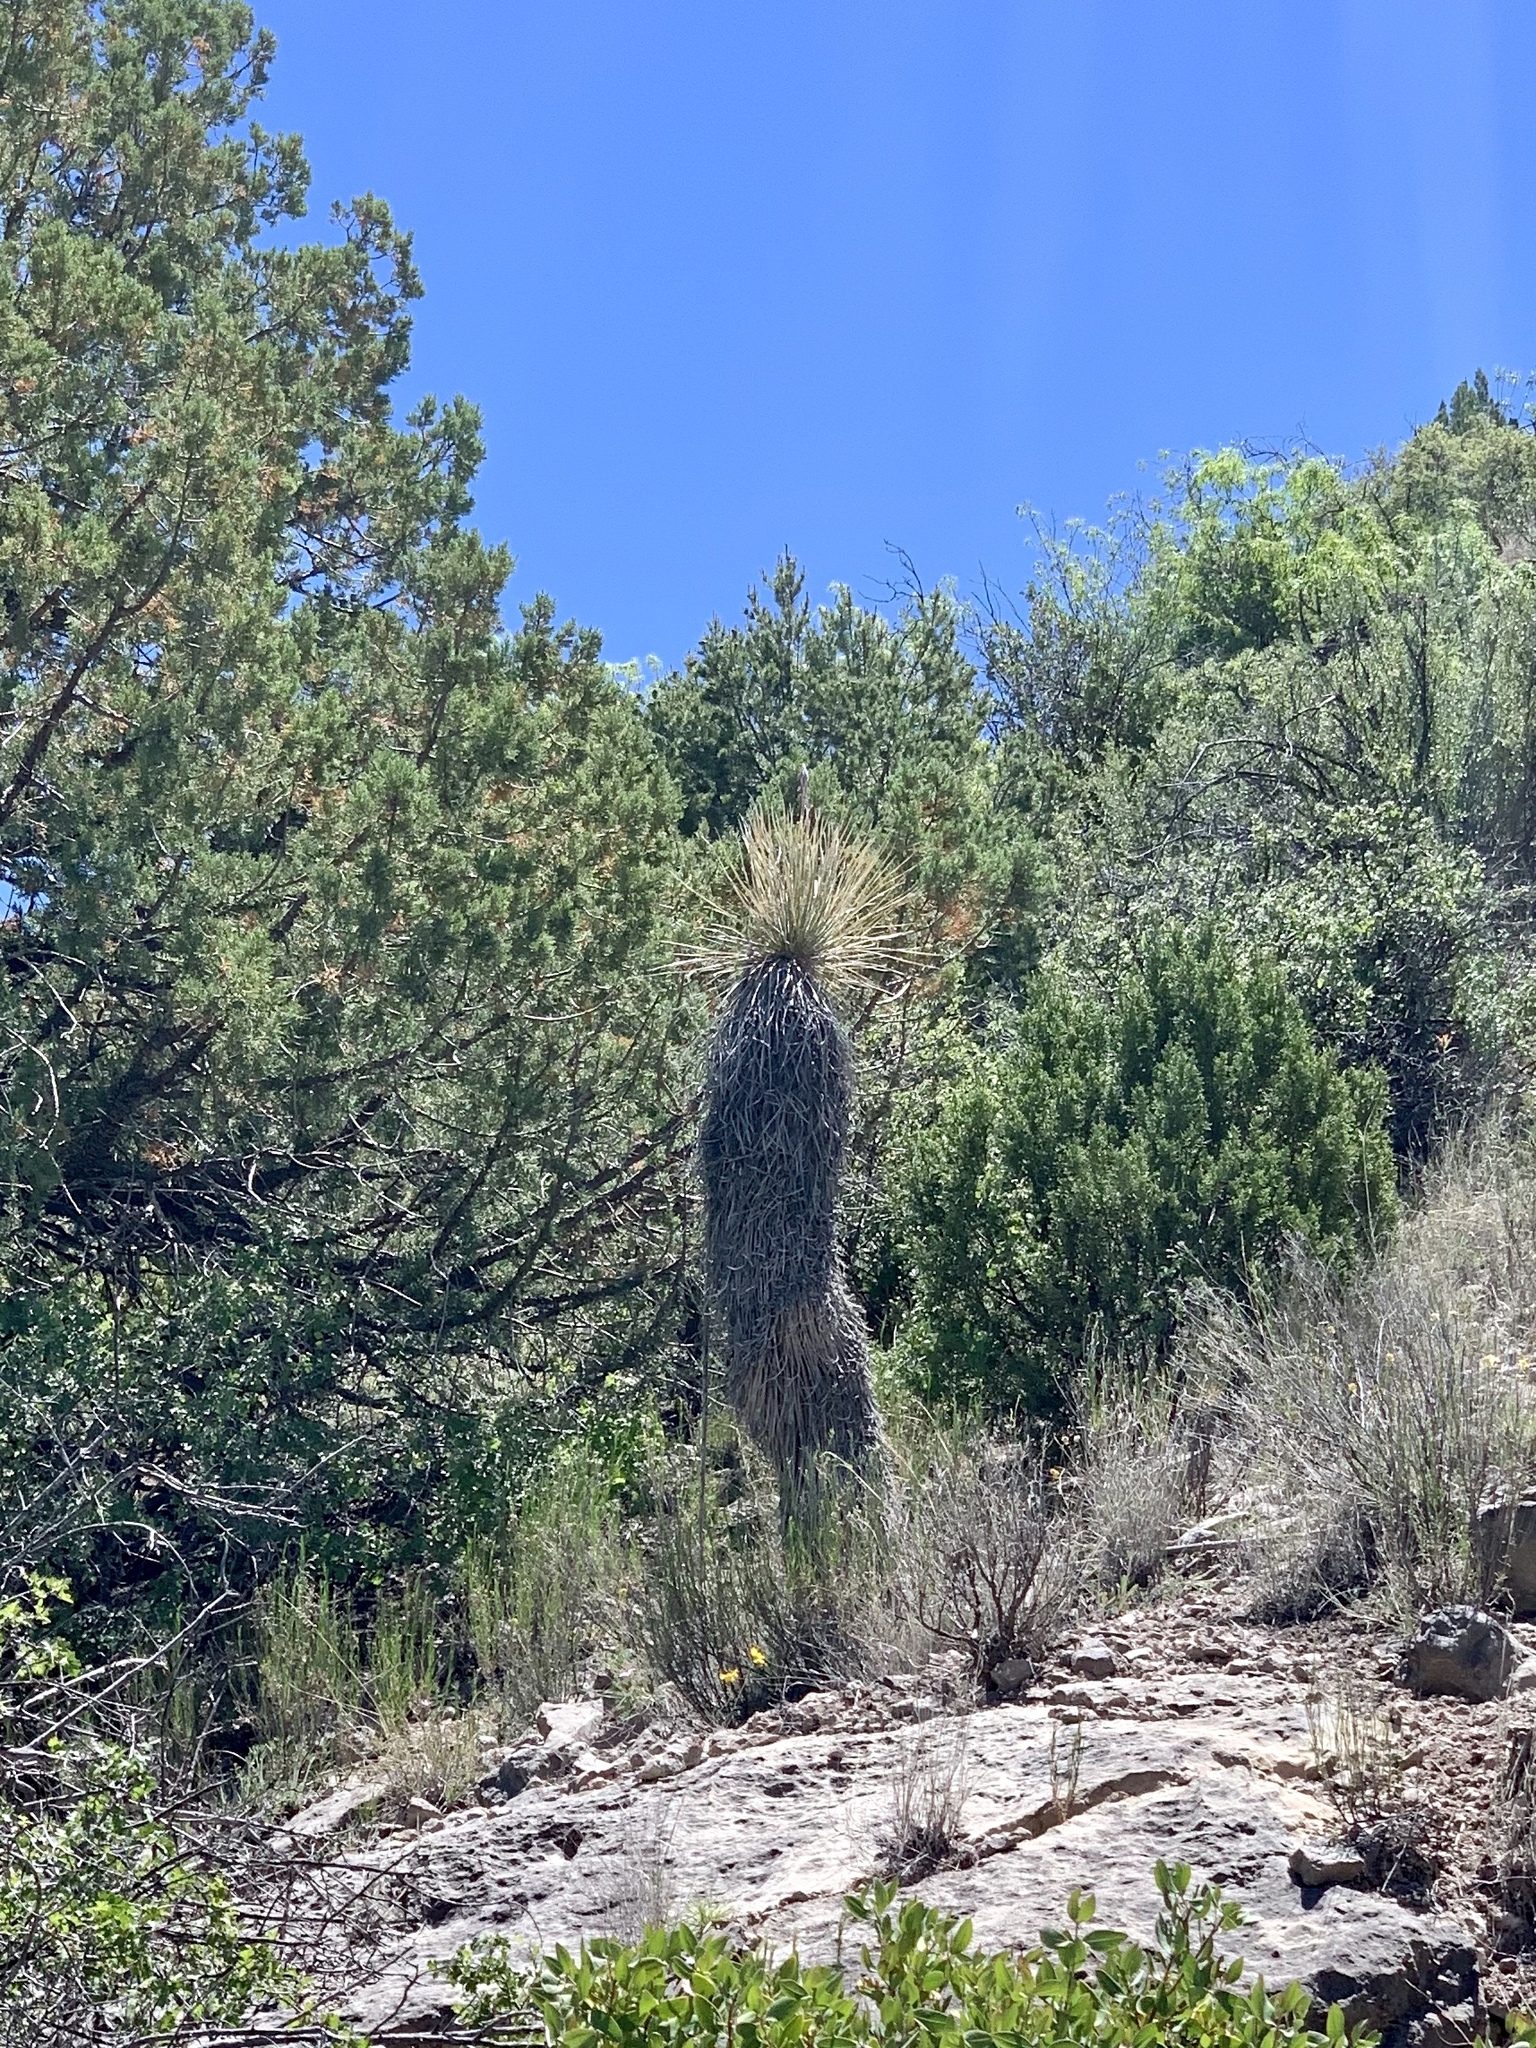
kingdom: Plantae
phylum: Tracheophyta
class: Liliopsida
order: Asparagales
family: Asparagaceae
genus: Yucca
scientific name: Yucca elata
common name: Palmella
